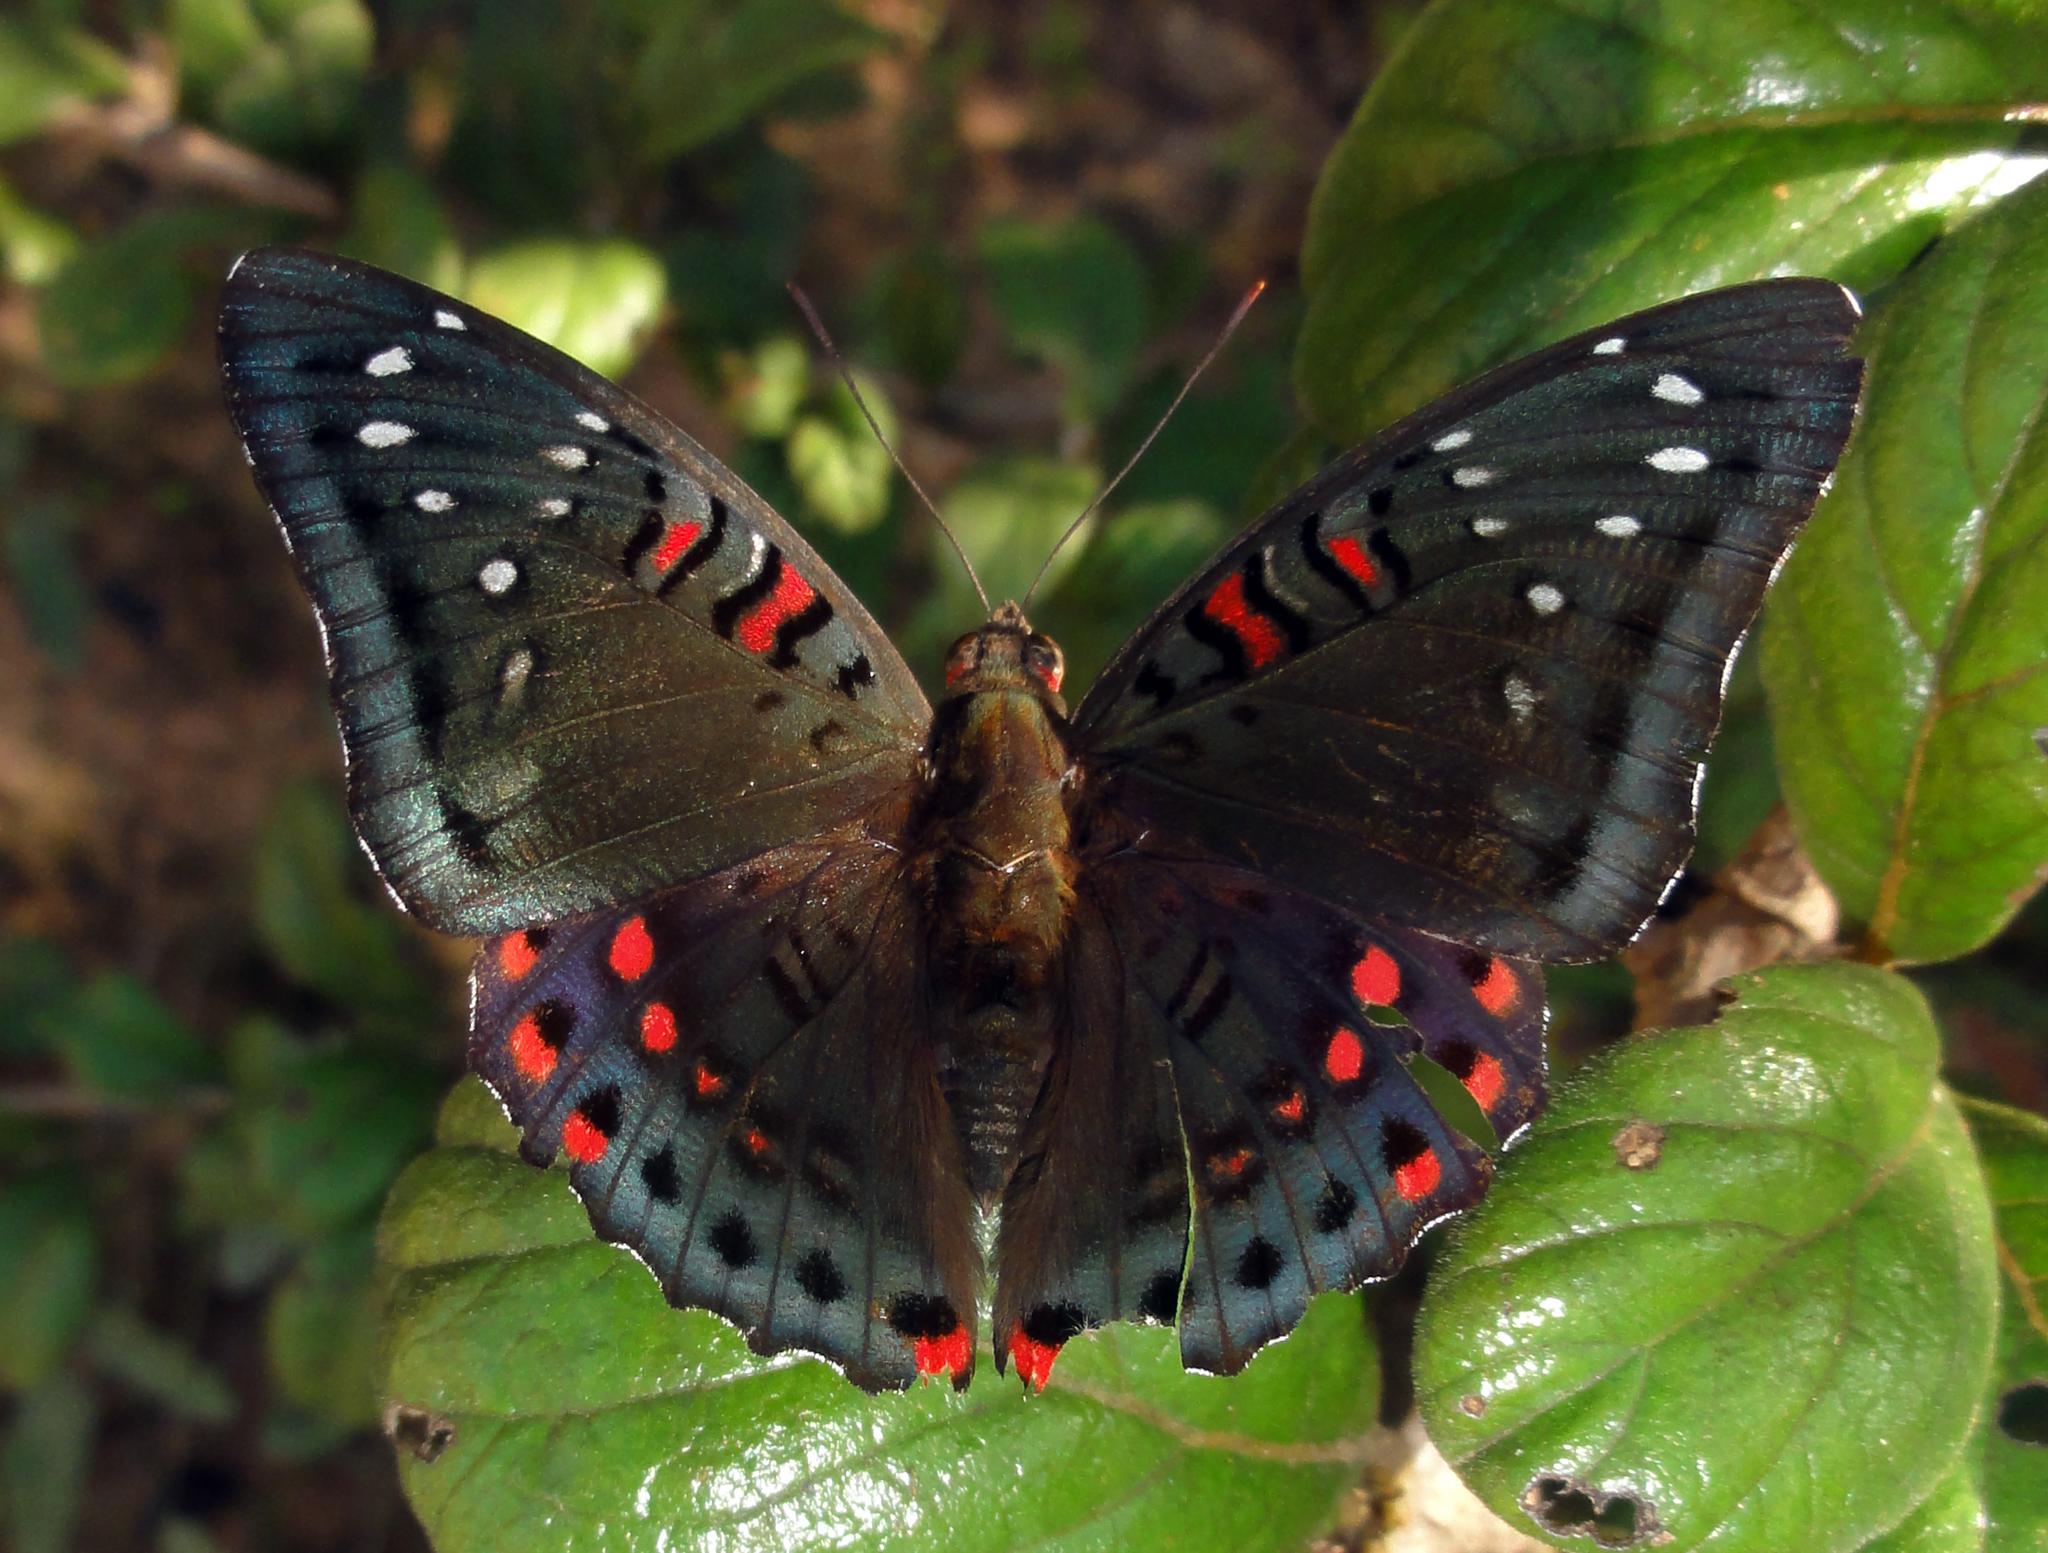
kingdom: Animalia
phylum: Arthropoda
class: Insecta
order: Lepidoptera
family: Nymphalidae
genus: Euthalia
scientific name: Euthalia lubentina
